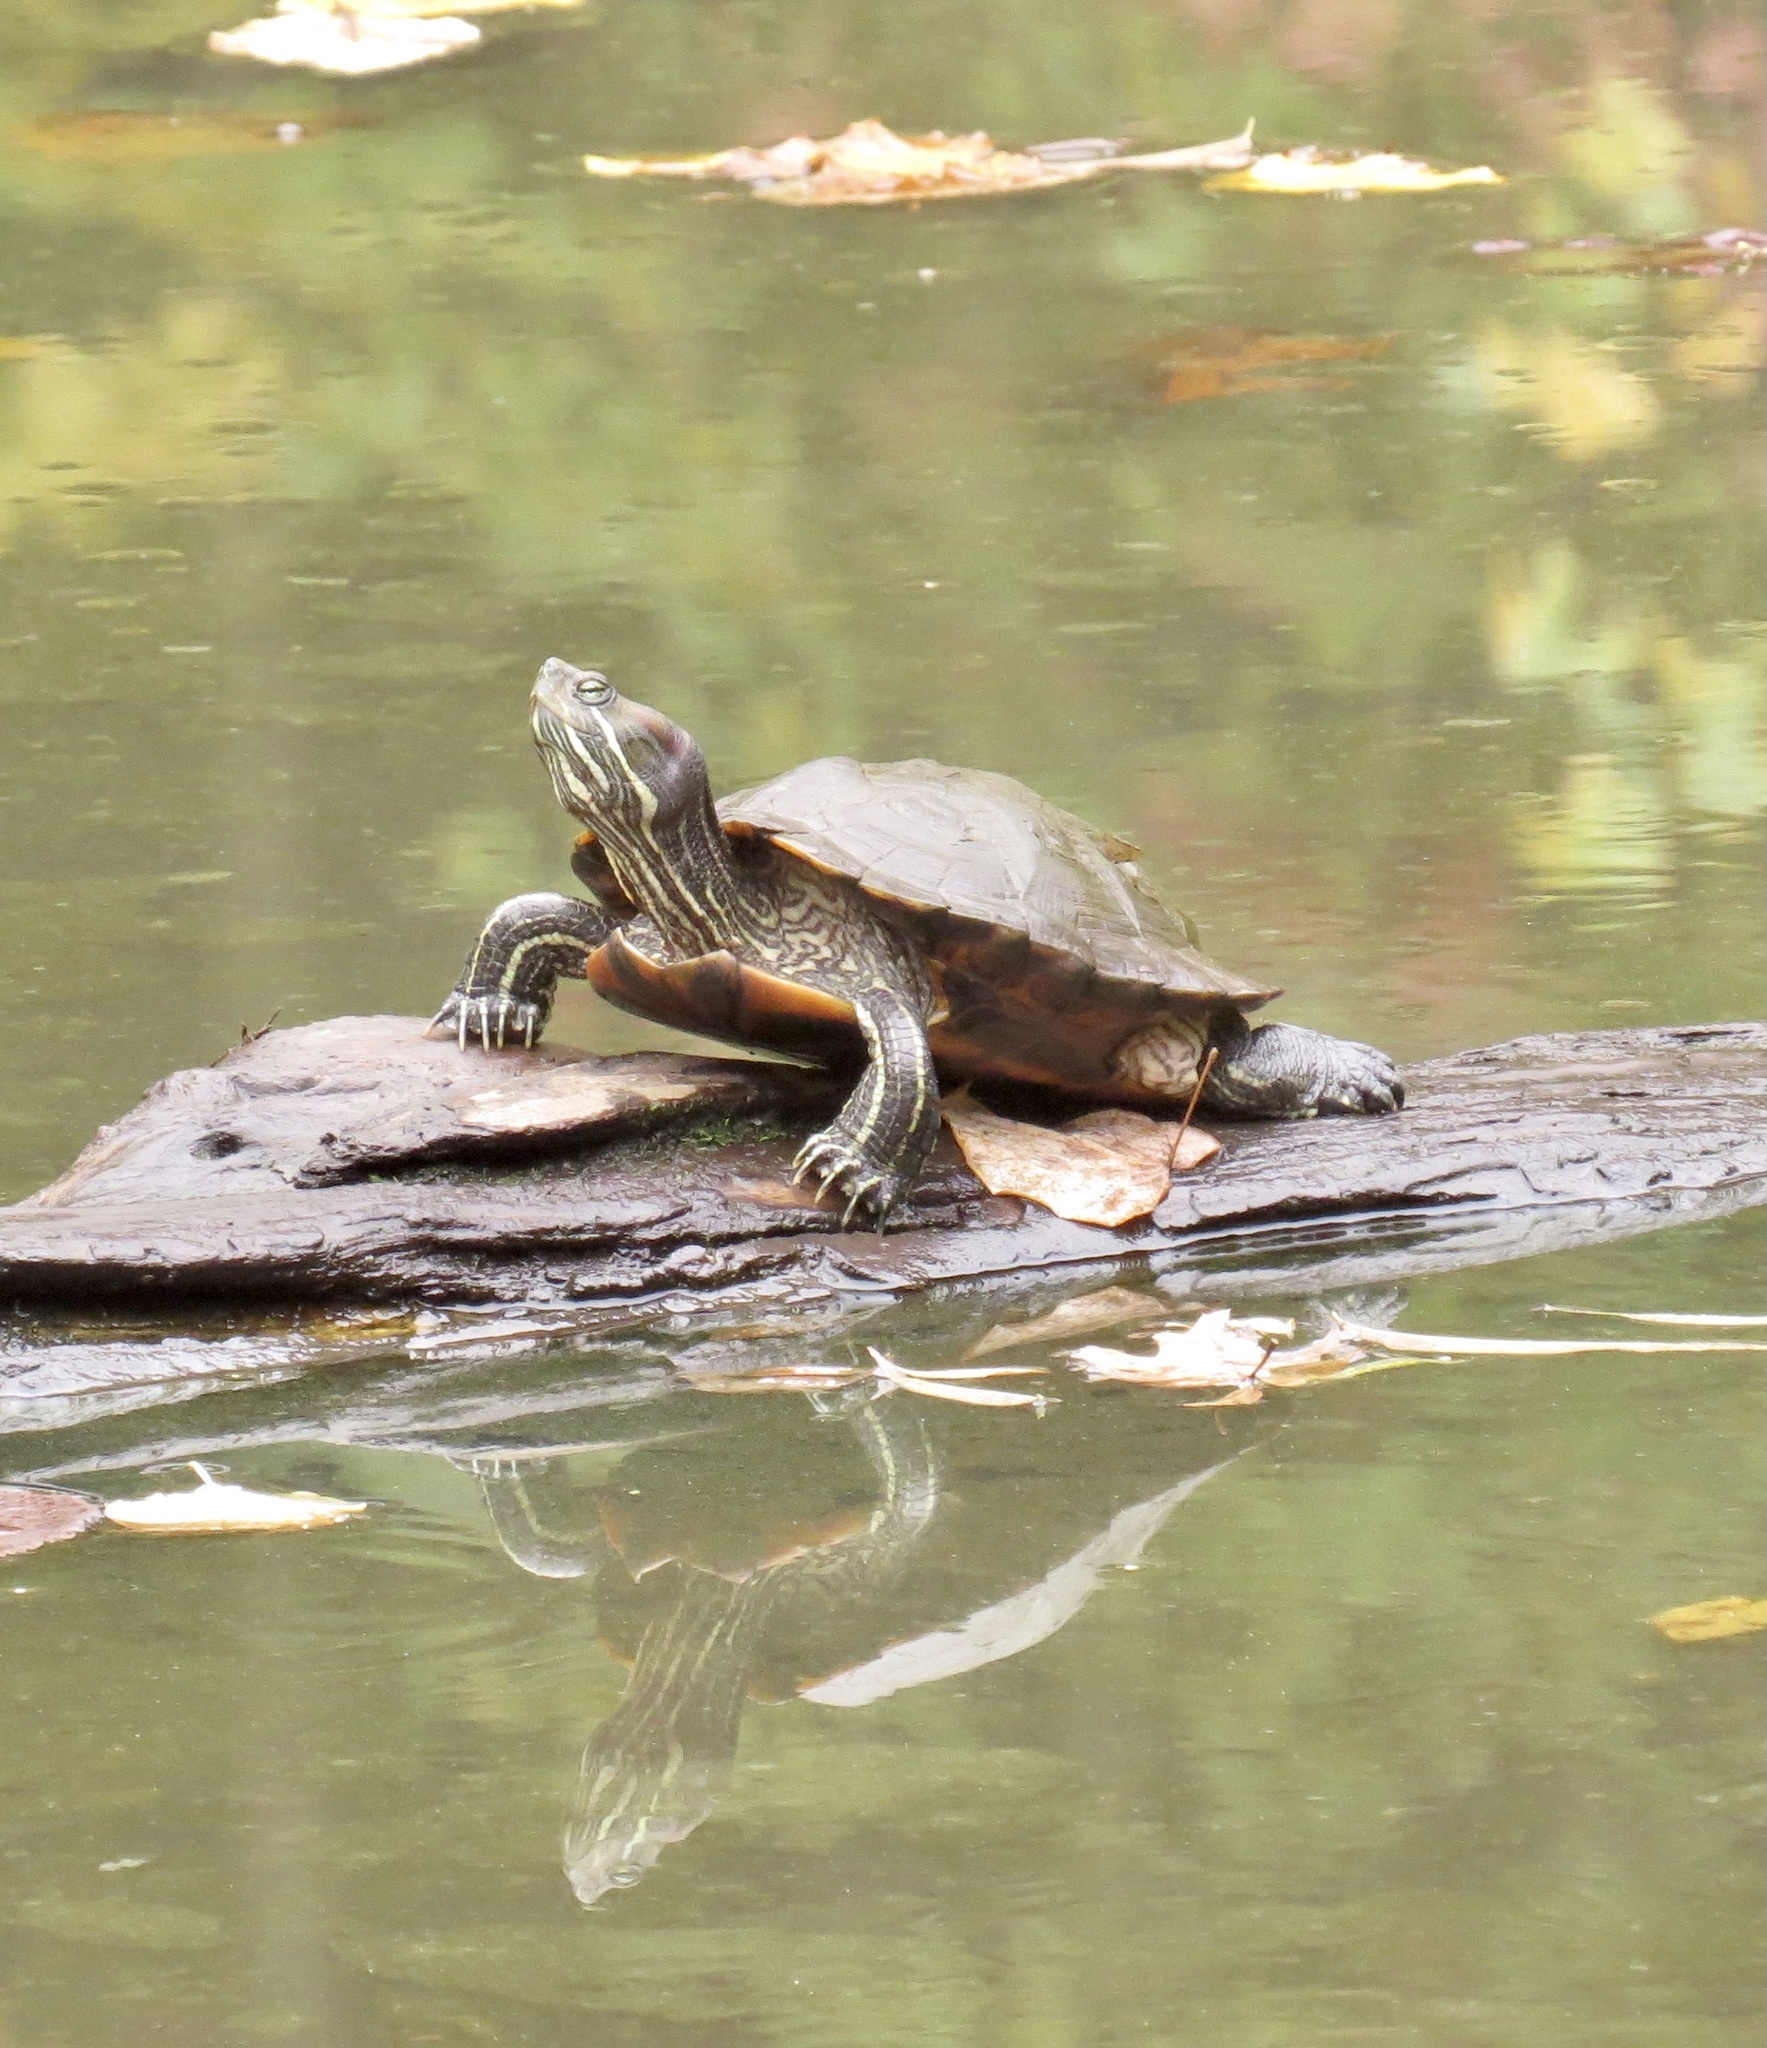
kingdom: Animalia
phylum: Chordata
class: Testudines
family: Emydidae
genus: Trachemys
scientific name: Trachemys scripta
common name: Slider
